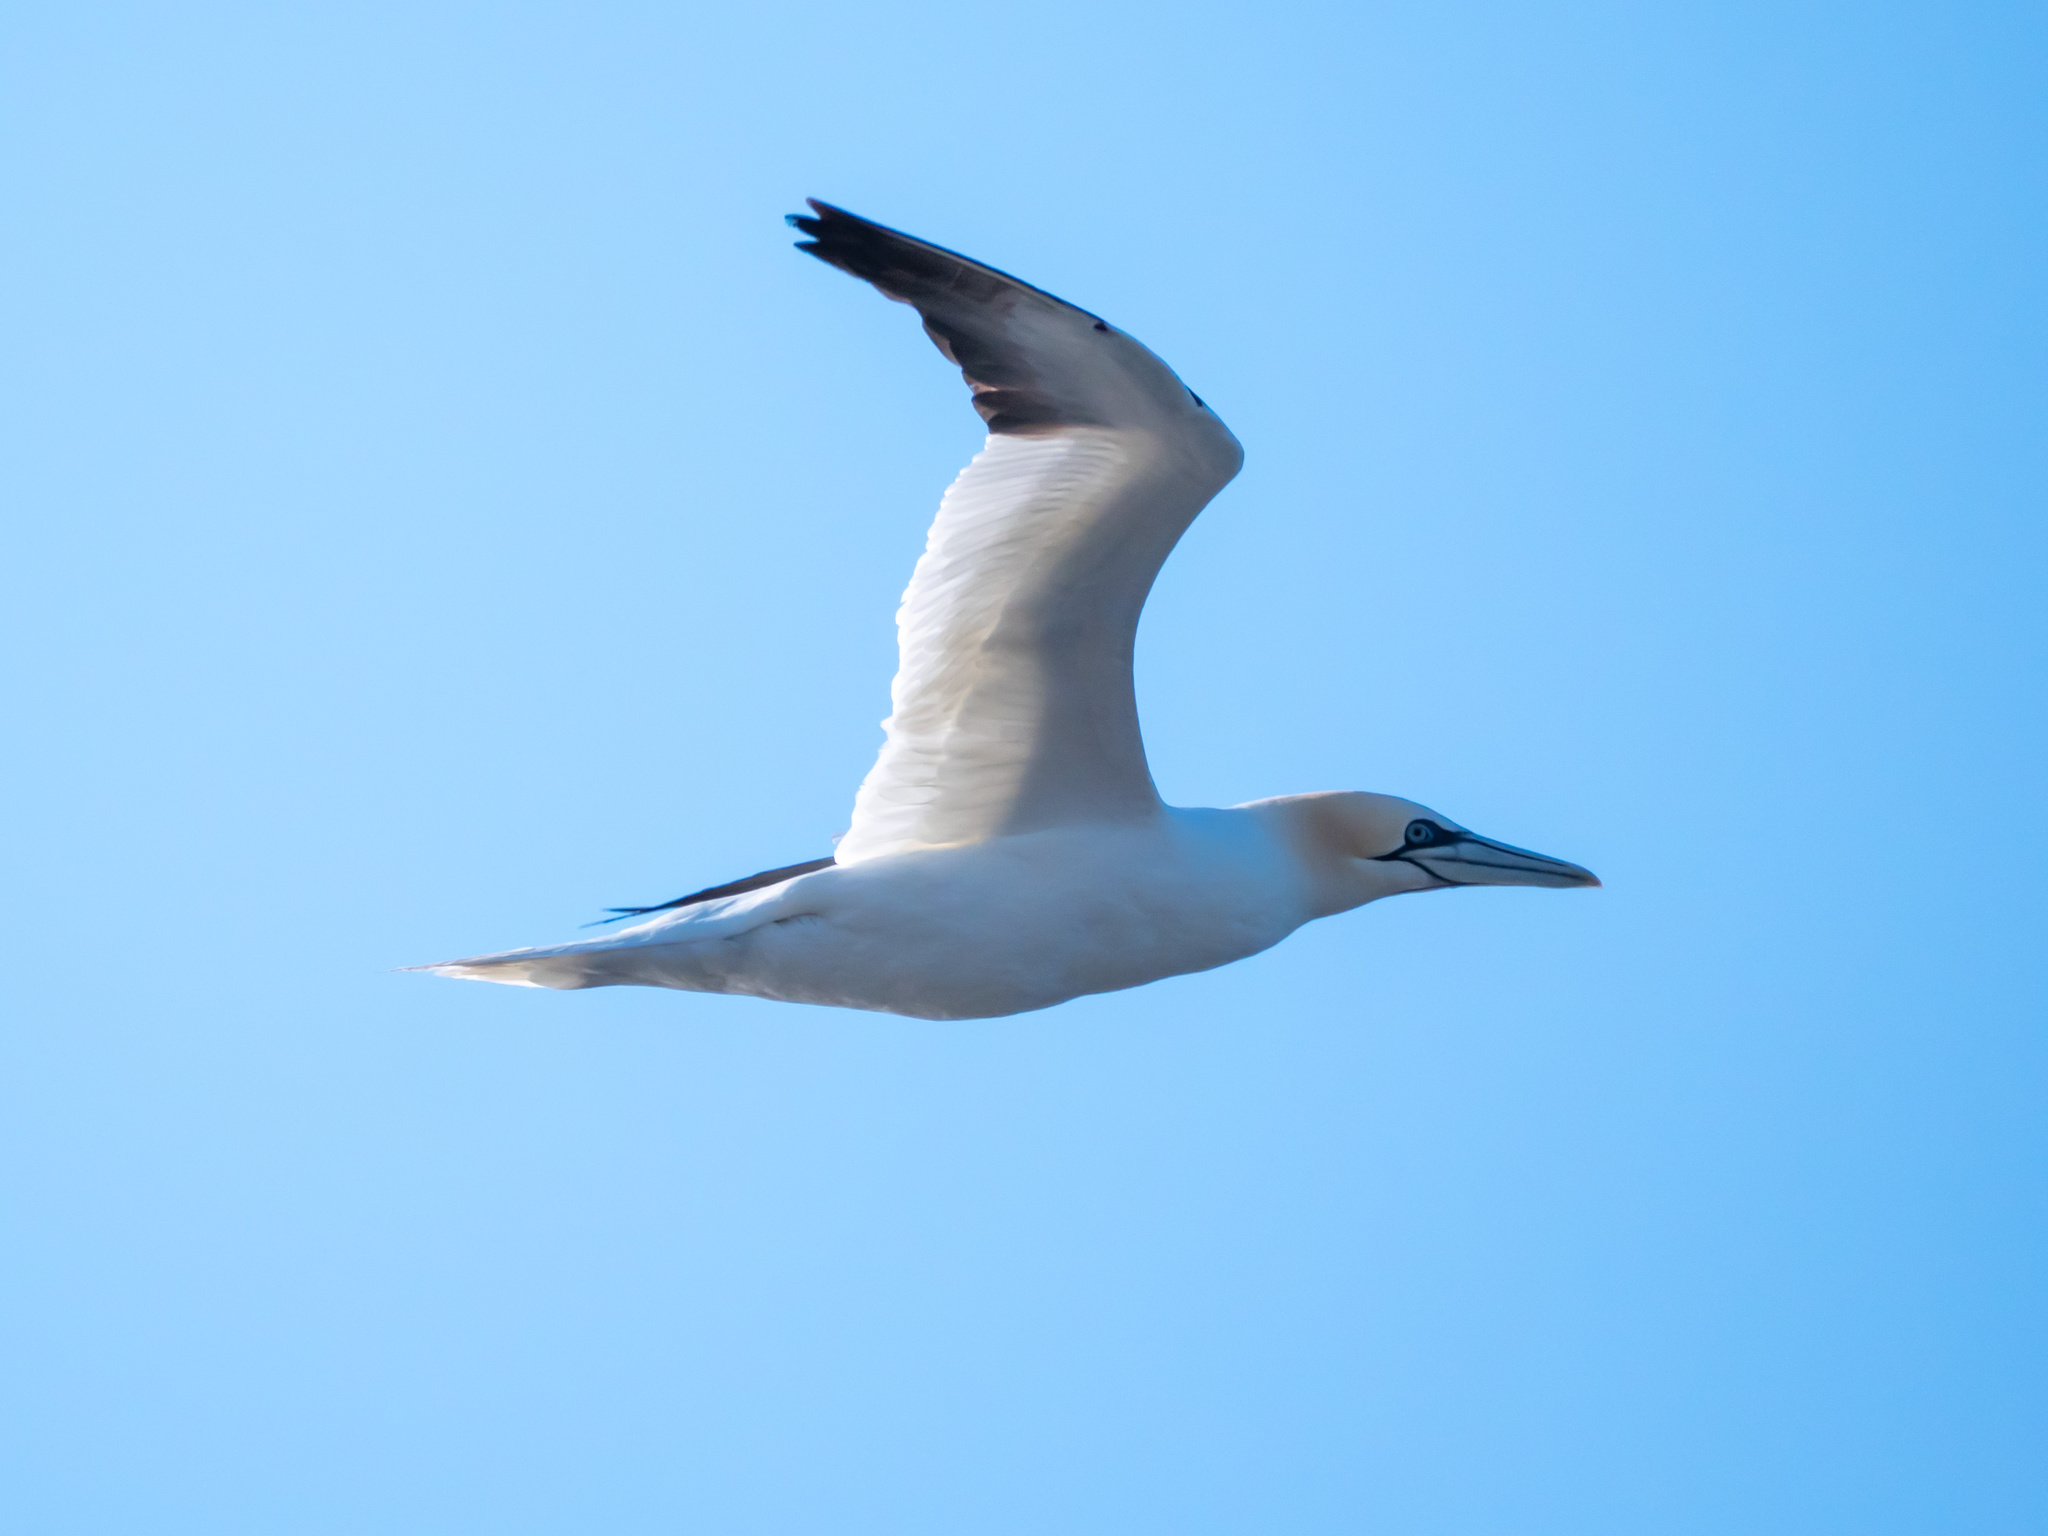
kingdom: Animalia
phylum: Chordata
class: Aves
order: Suliformes
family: Sulidae
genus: Morus
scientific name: Morus bassanus
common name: Northern gannet
